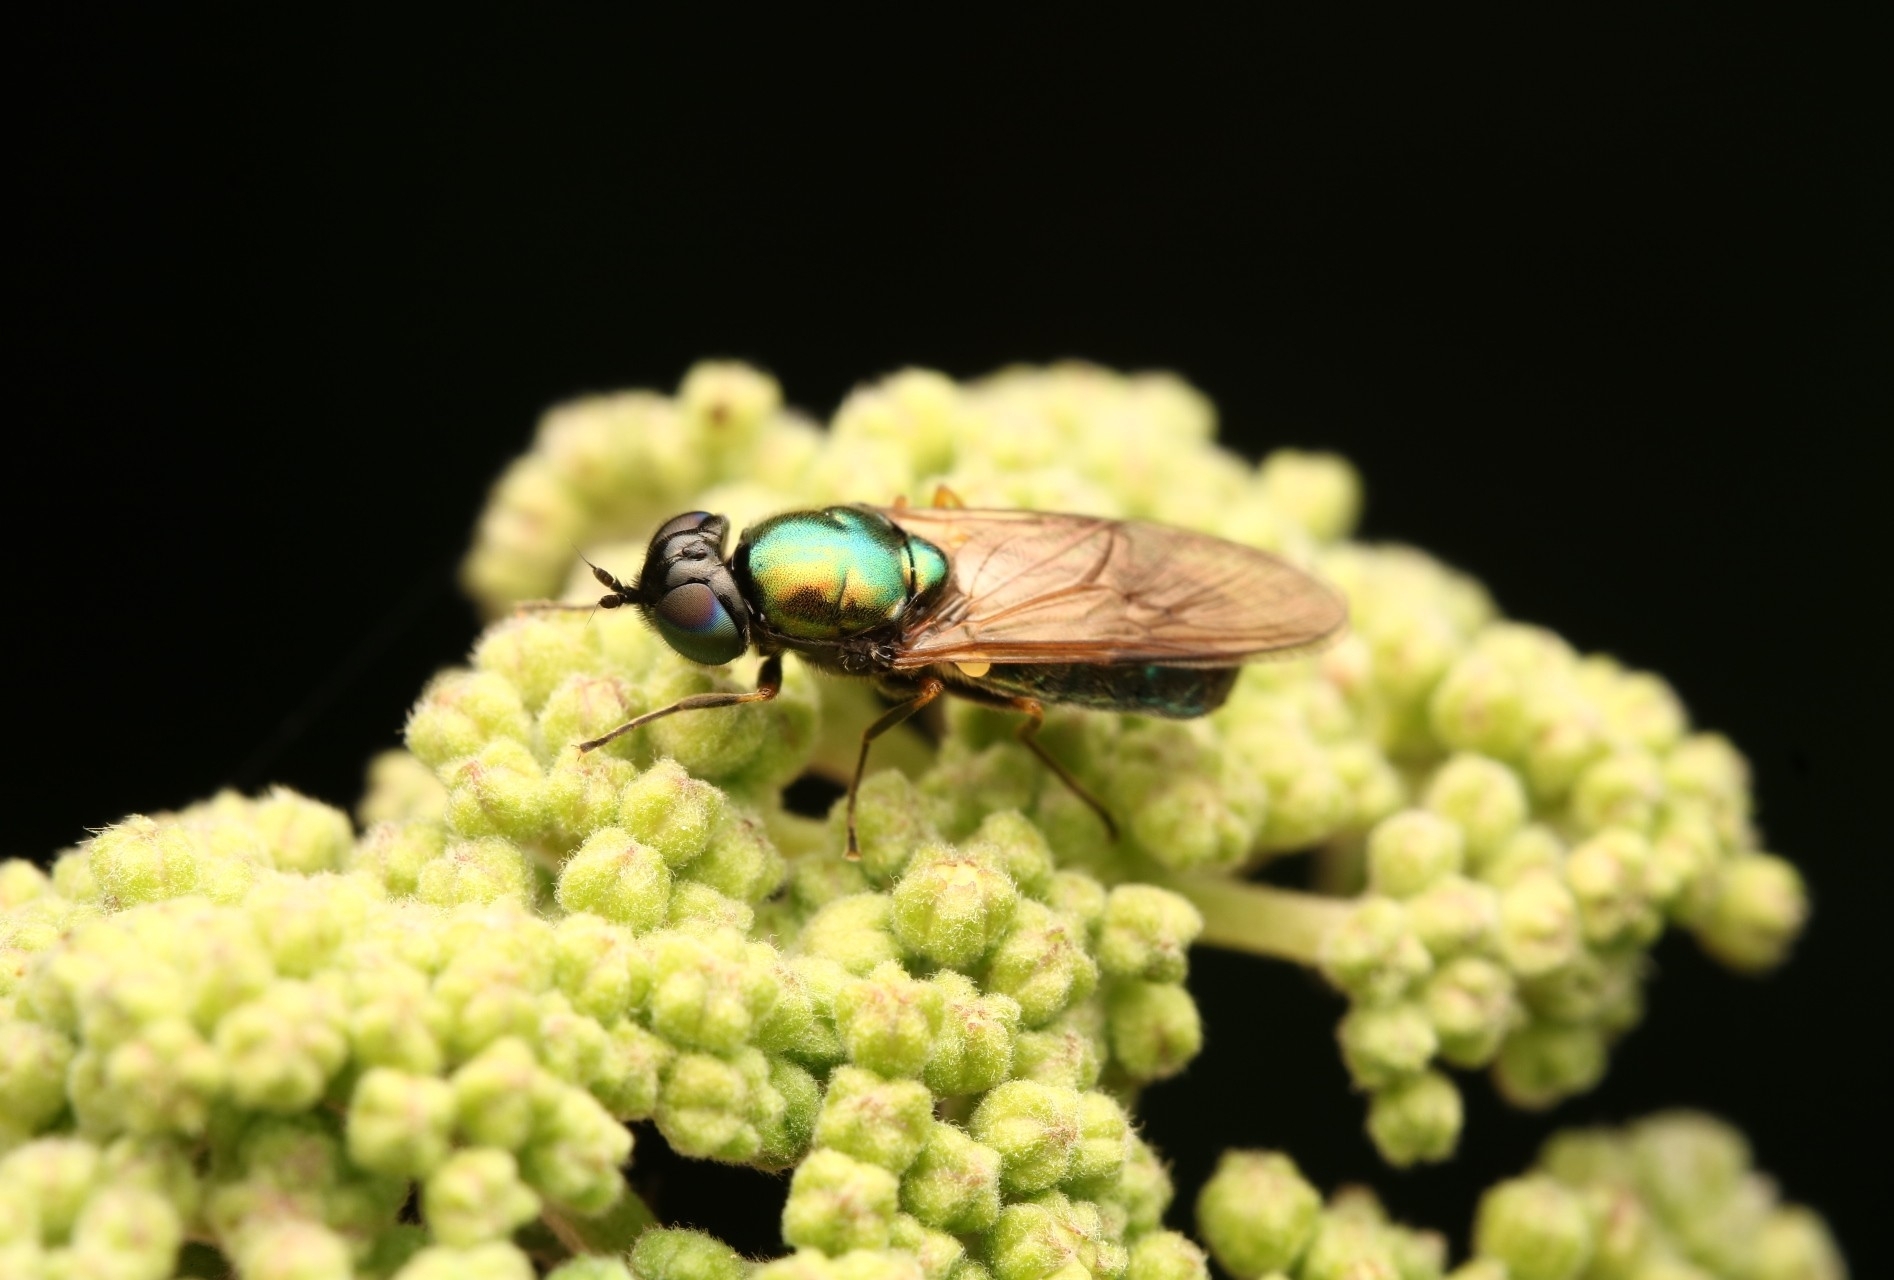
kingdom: Animalia
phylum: Arthropoda
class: Insecta
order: Diptera
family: Stratiomyidae
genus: Chloromyia
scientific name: Chloromyia formosa
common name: Soldier fly
